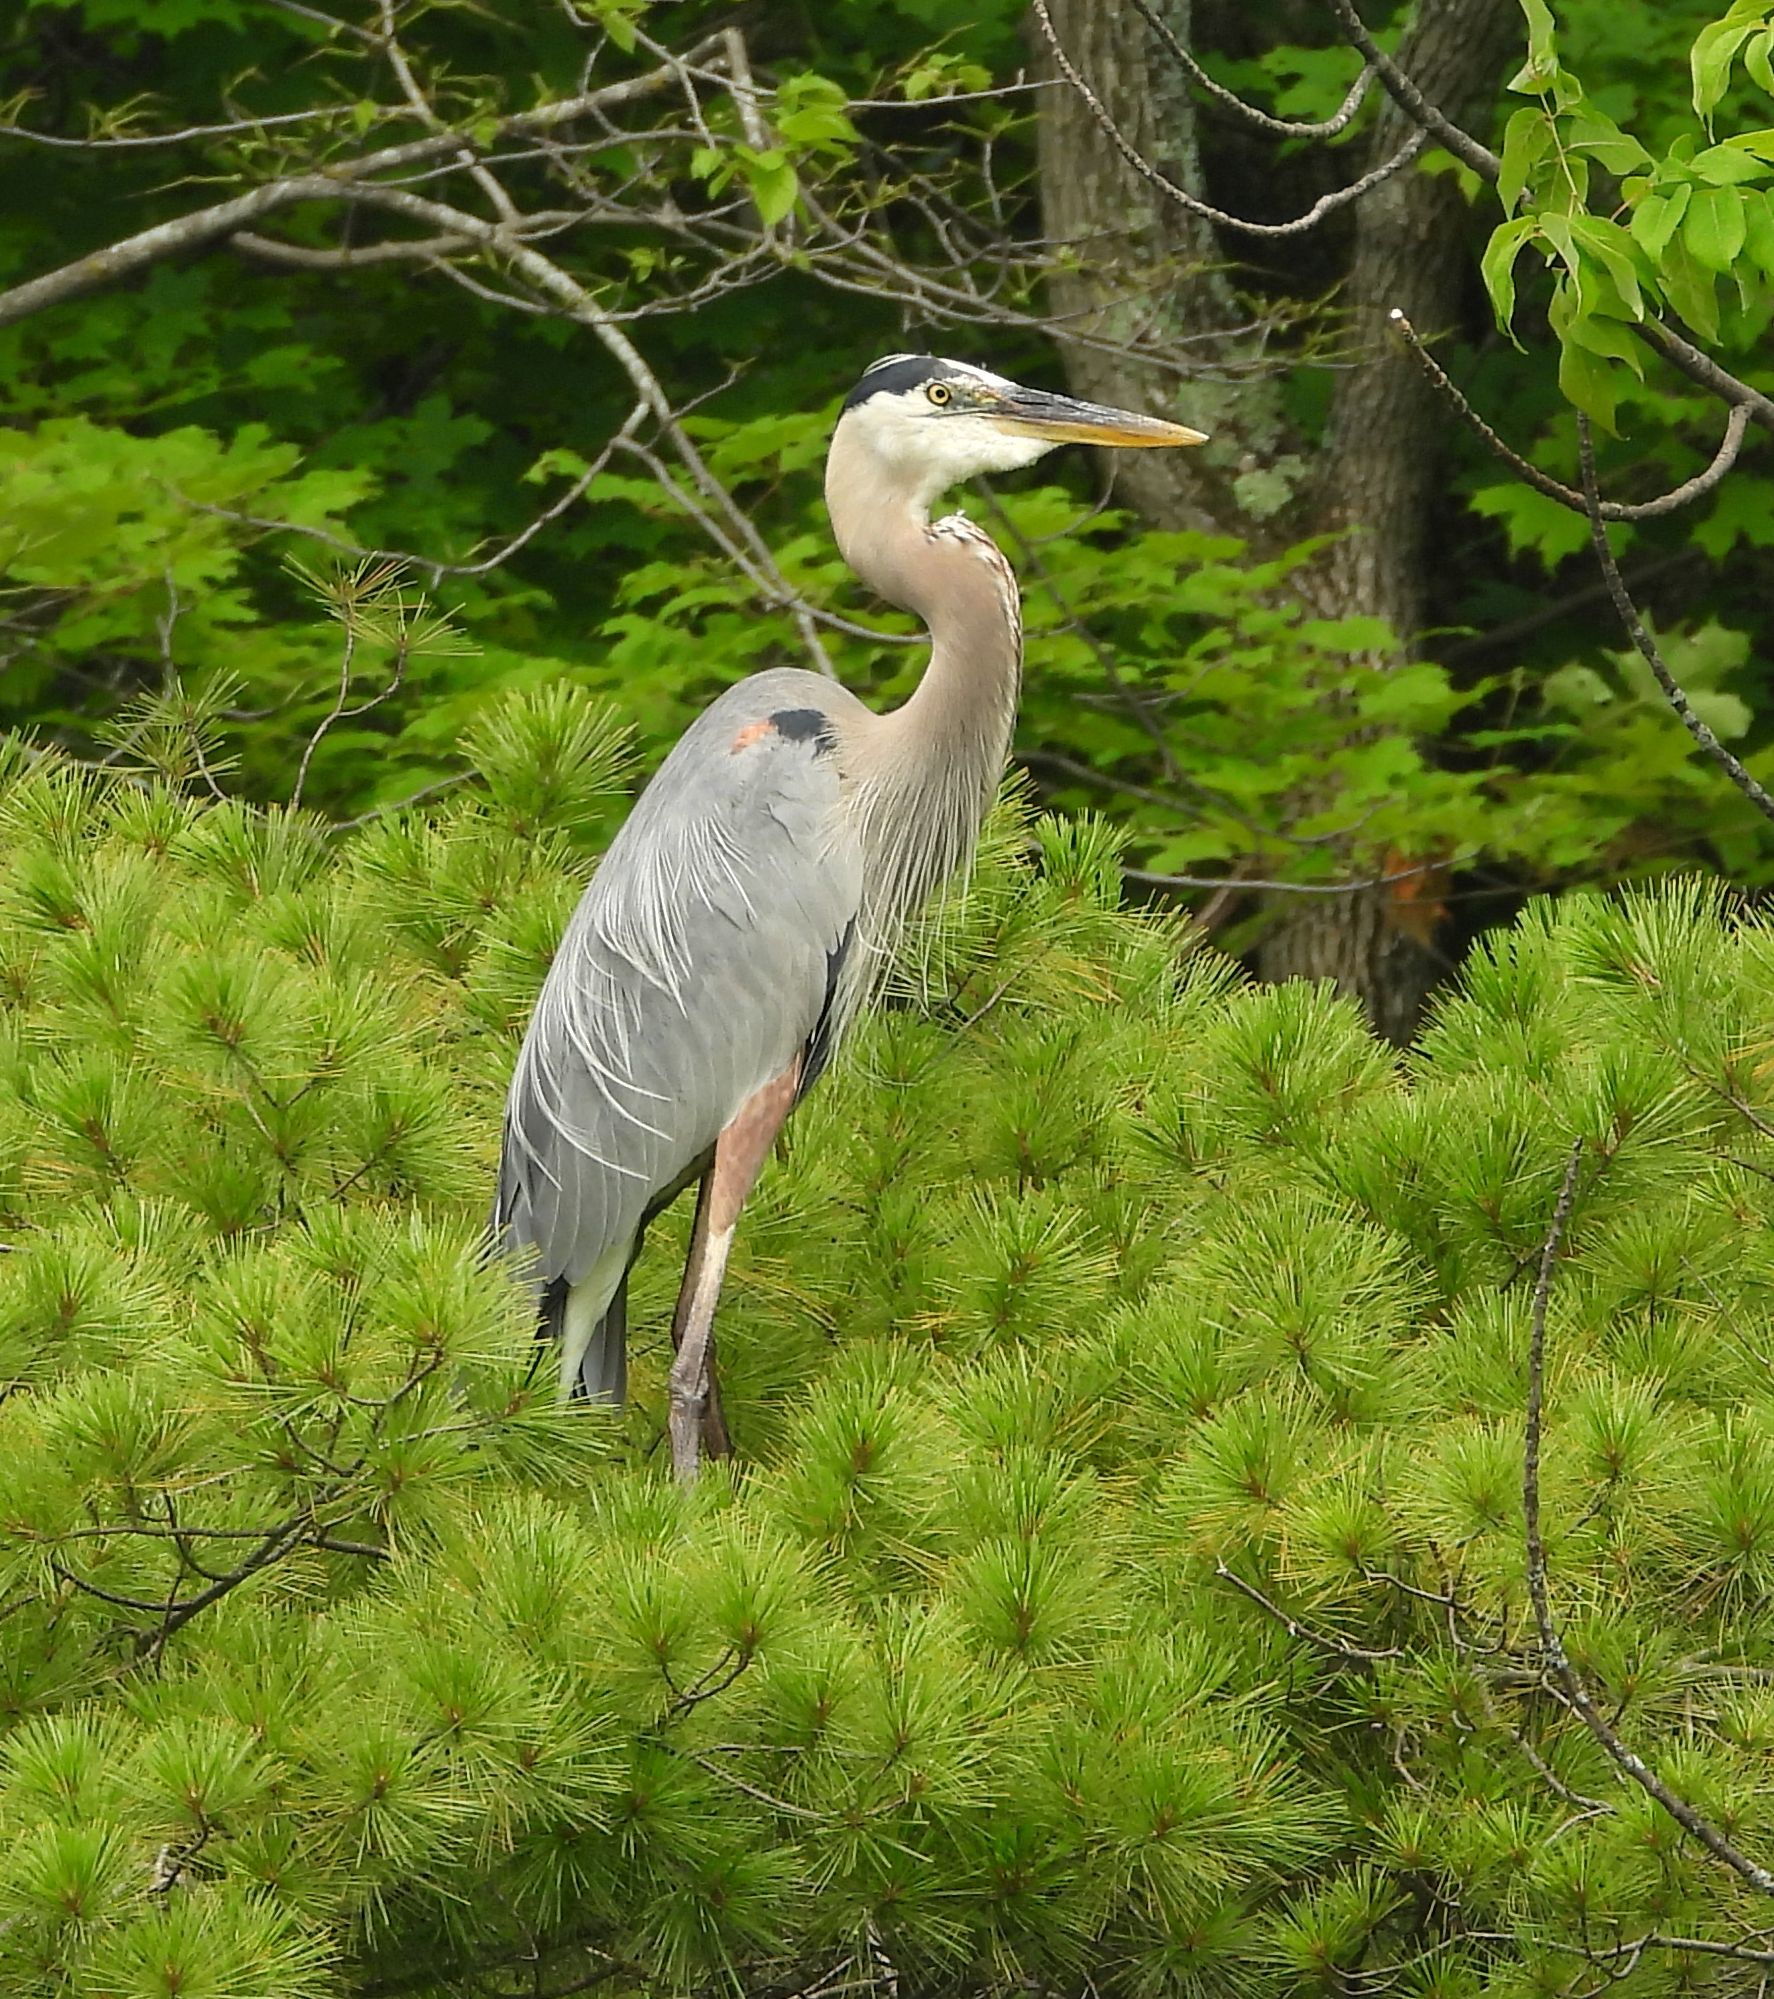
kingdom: Animalia
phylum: Chordata
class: Aves
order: Pelecaniformes
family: Ardeidae
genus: Ardea
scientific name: Ardea herodias
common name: Great blue heron
